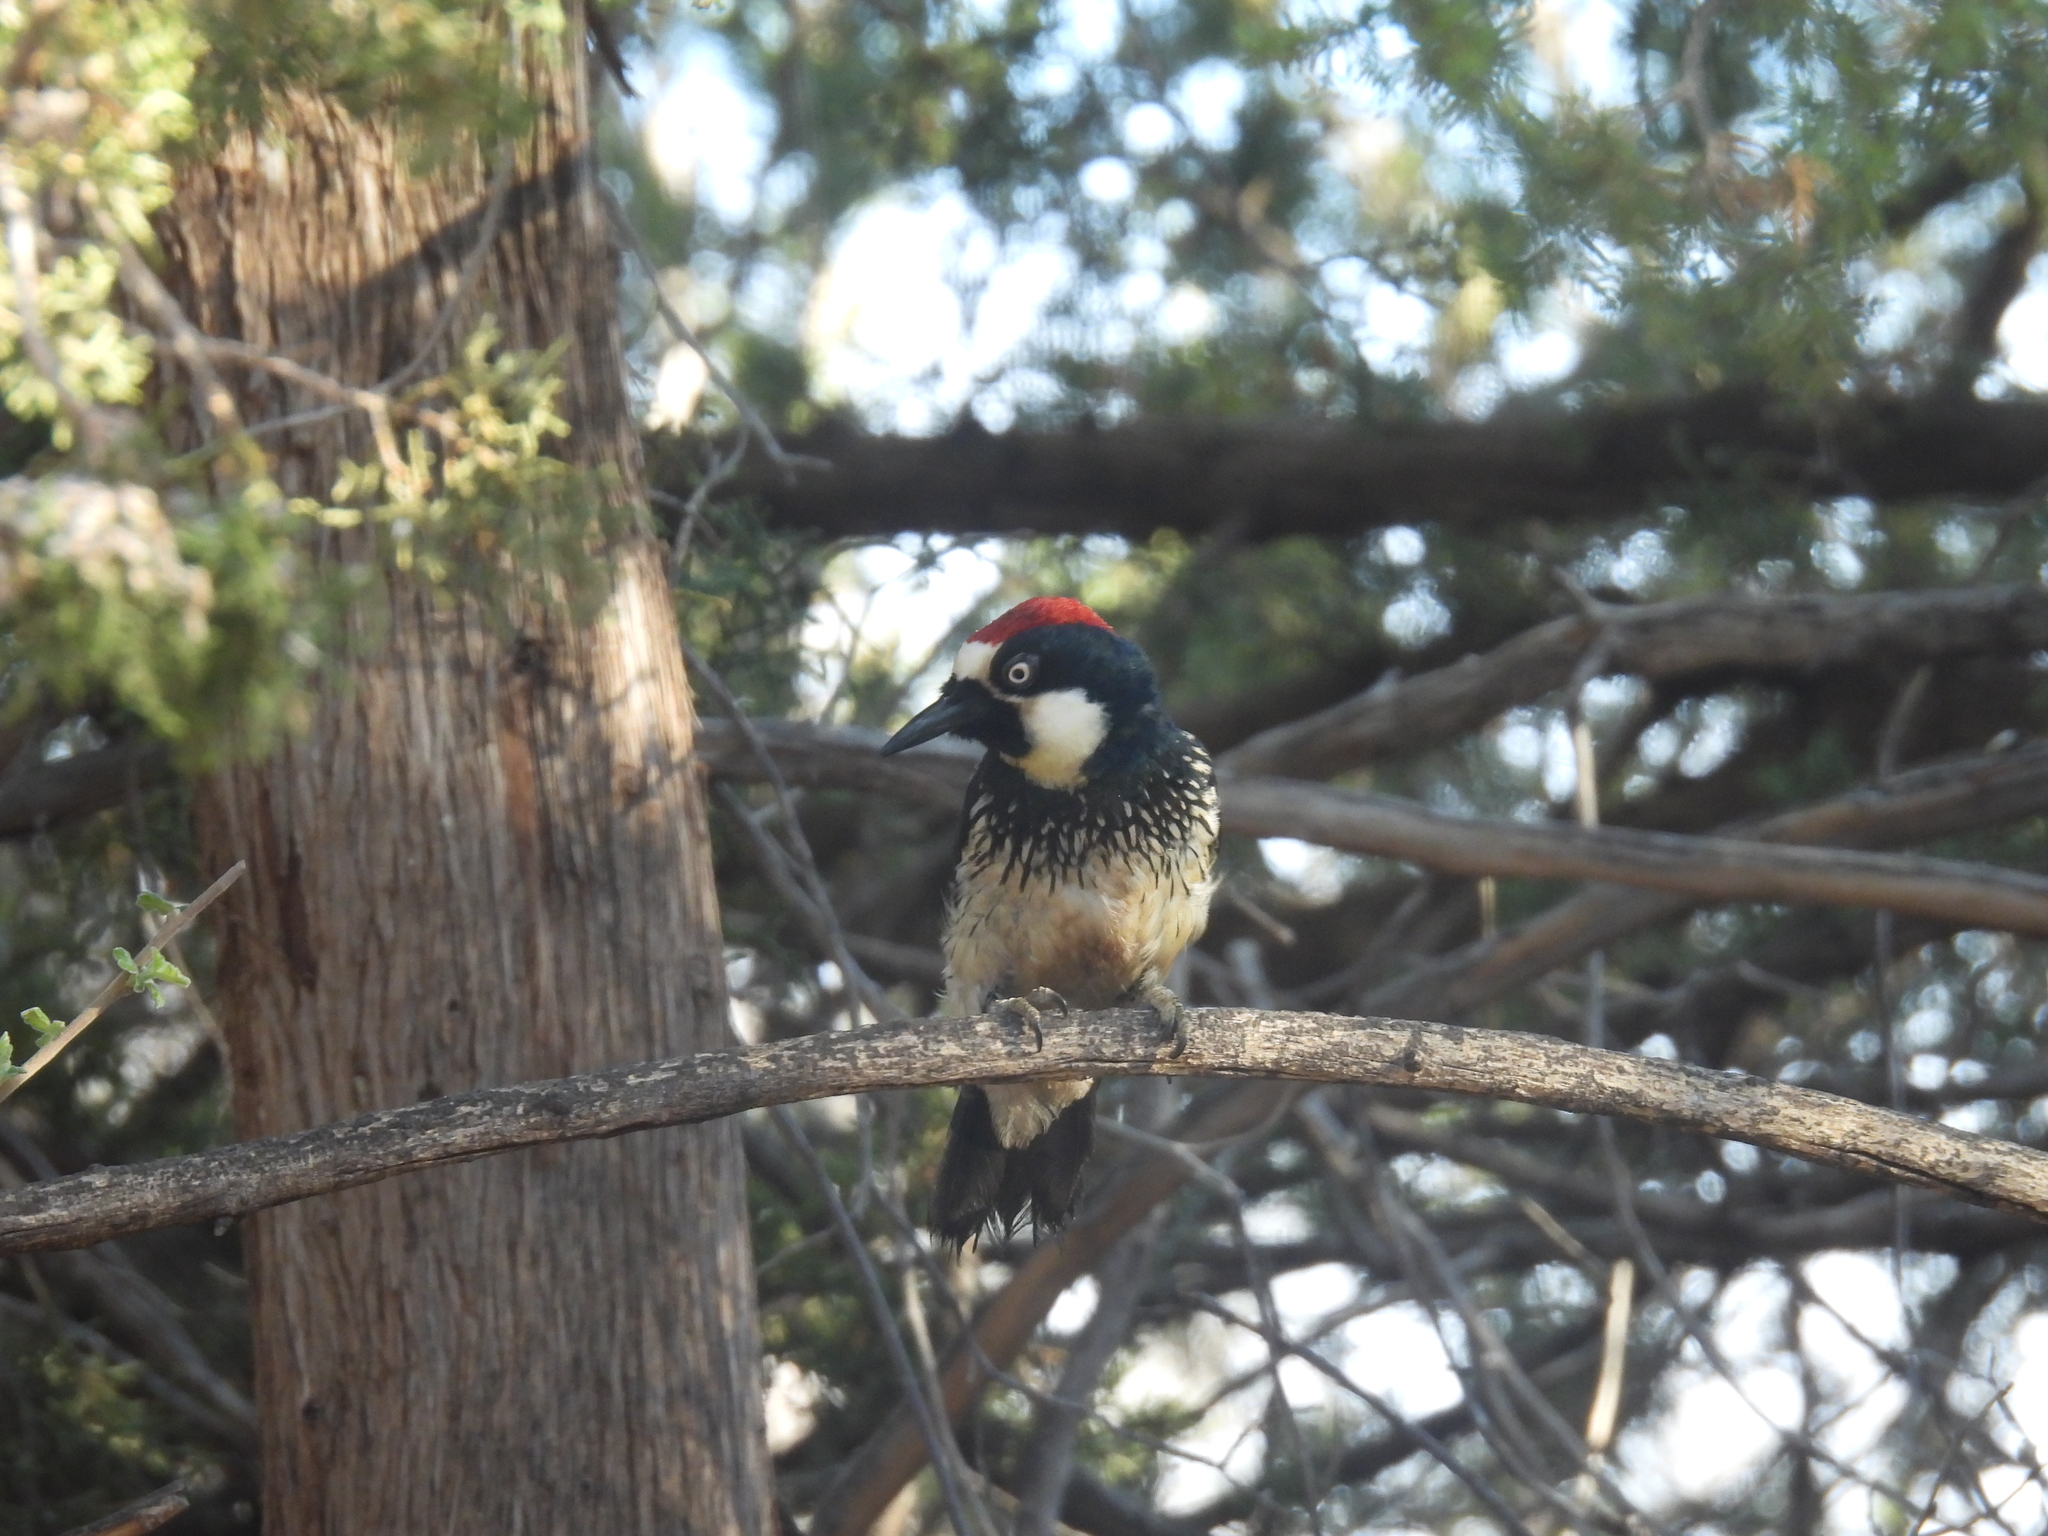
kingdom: Animalia
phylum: Chordata
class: Aves
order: Piciformes
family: Picidae
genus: Melanerpes
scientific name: Melanerpes formicivorus
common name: Acorn woodpecker
